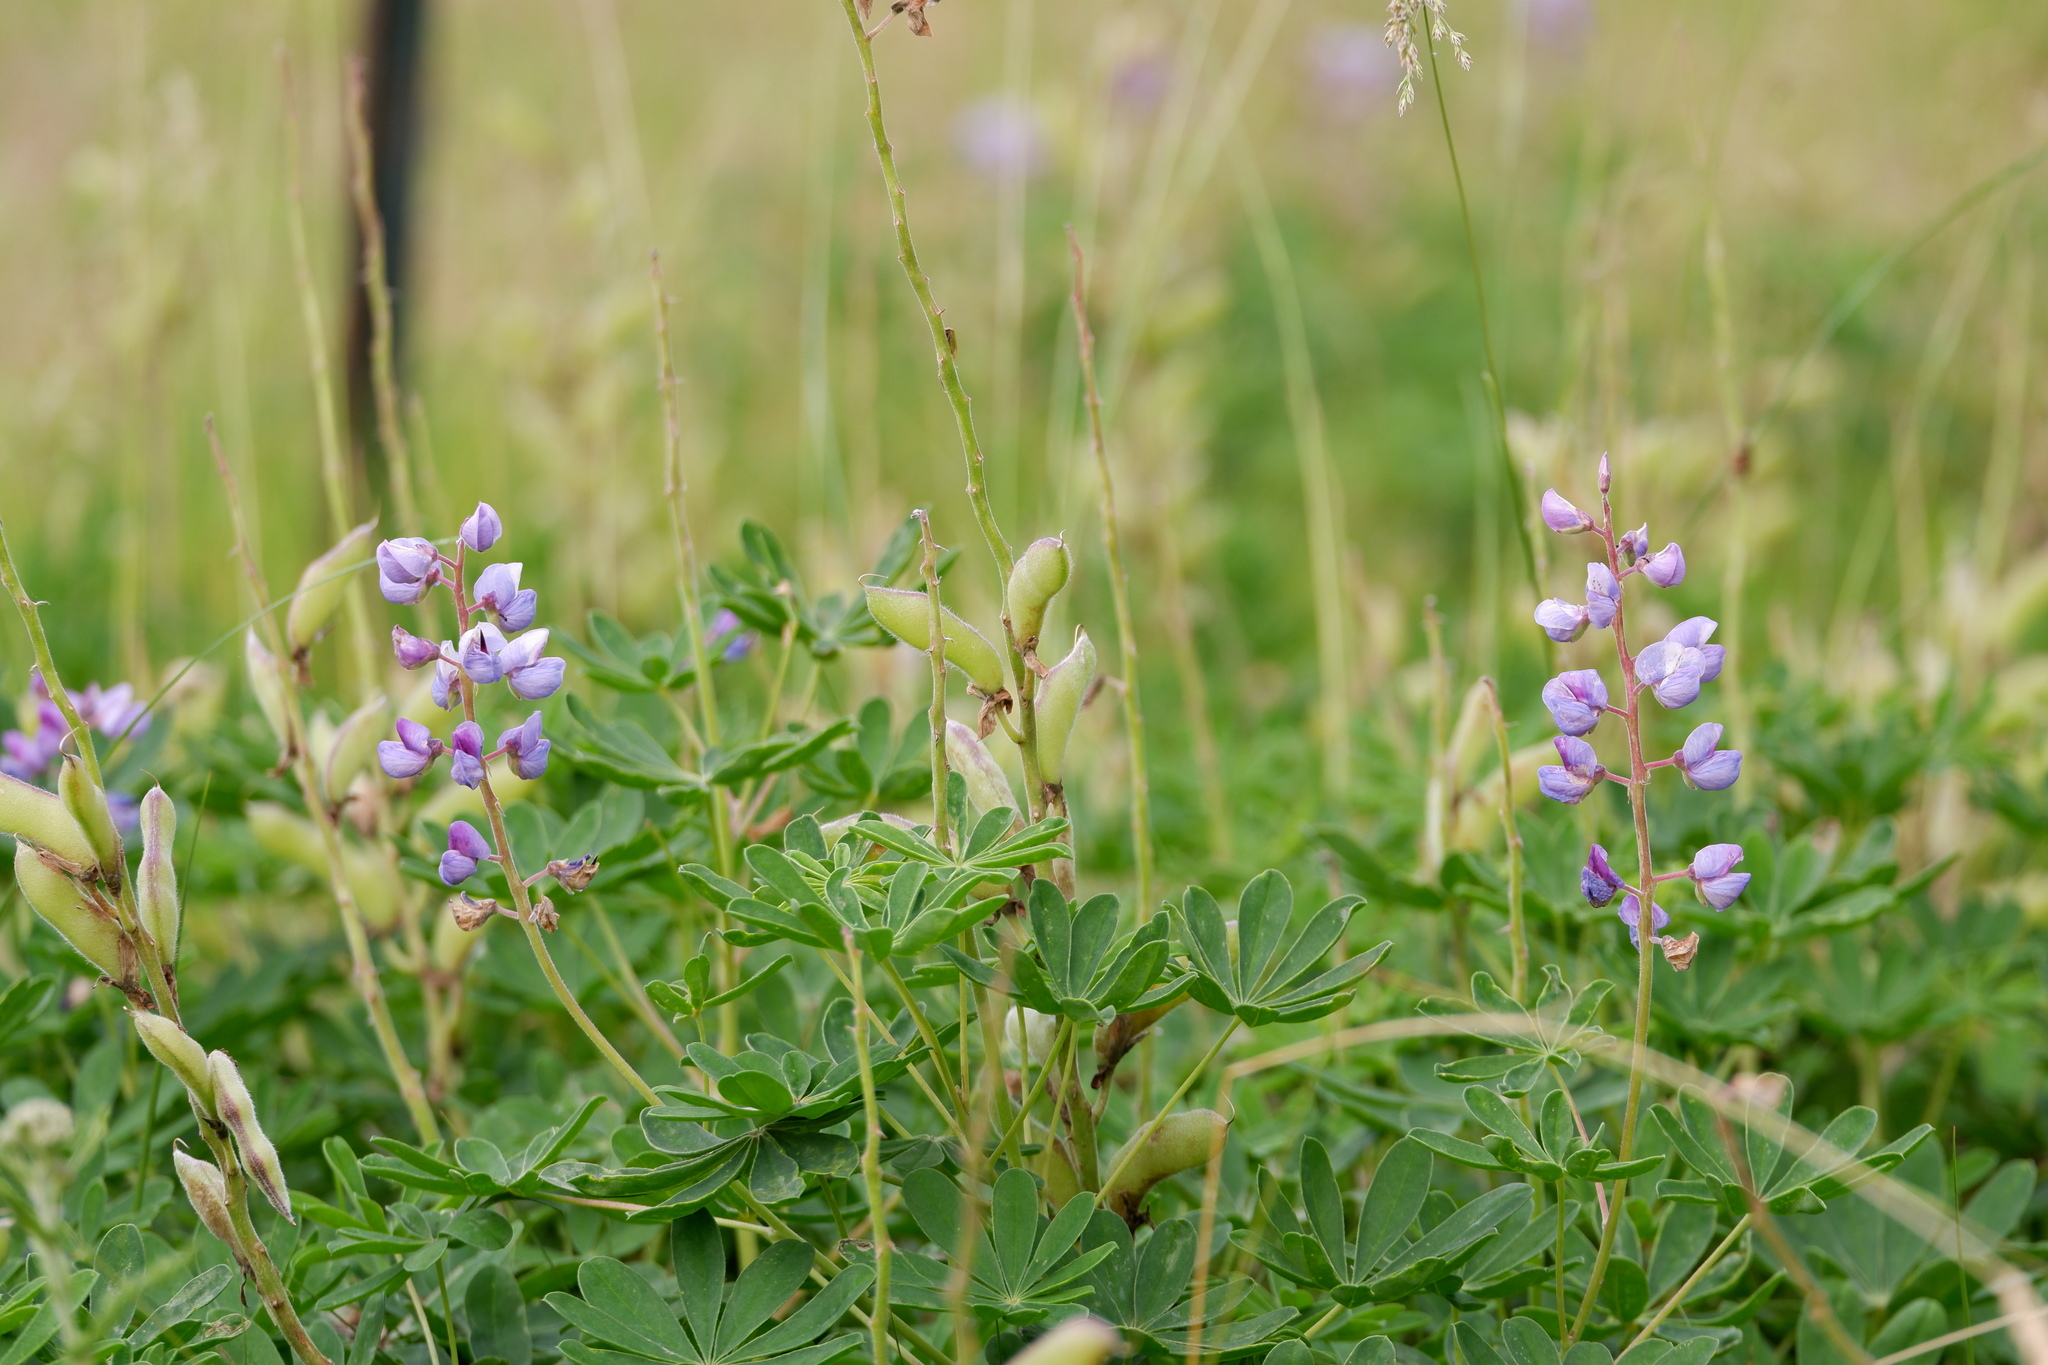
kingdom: Plantae
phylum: Tracheophyta
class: Magnoliopsida
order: Fabales
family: Fabaceae
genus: Lupinus
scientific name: Lupinus perennis
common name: Sundial lupine
